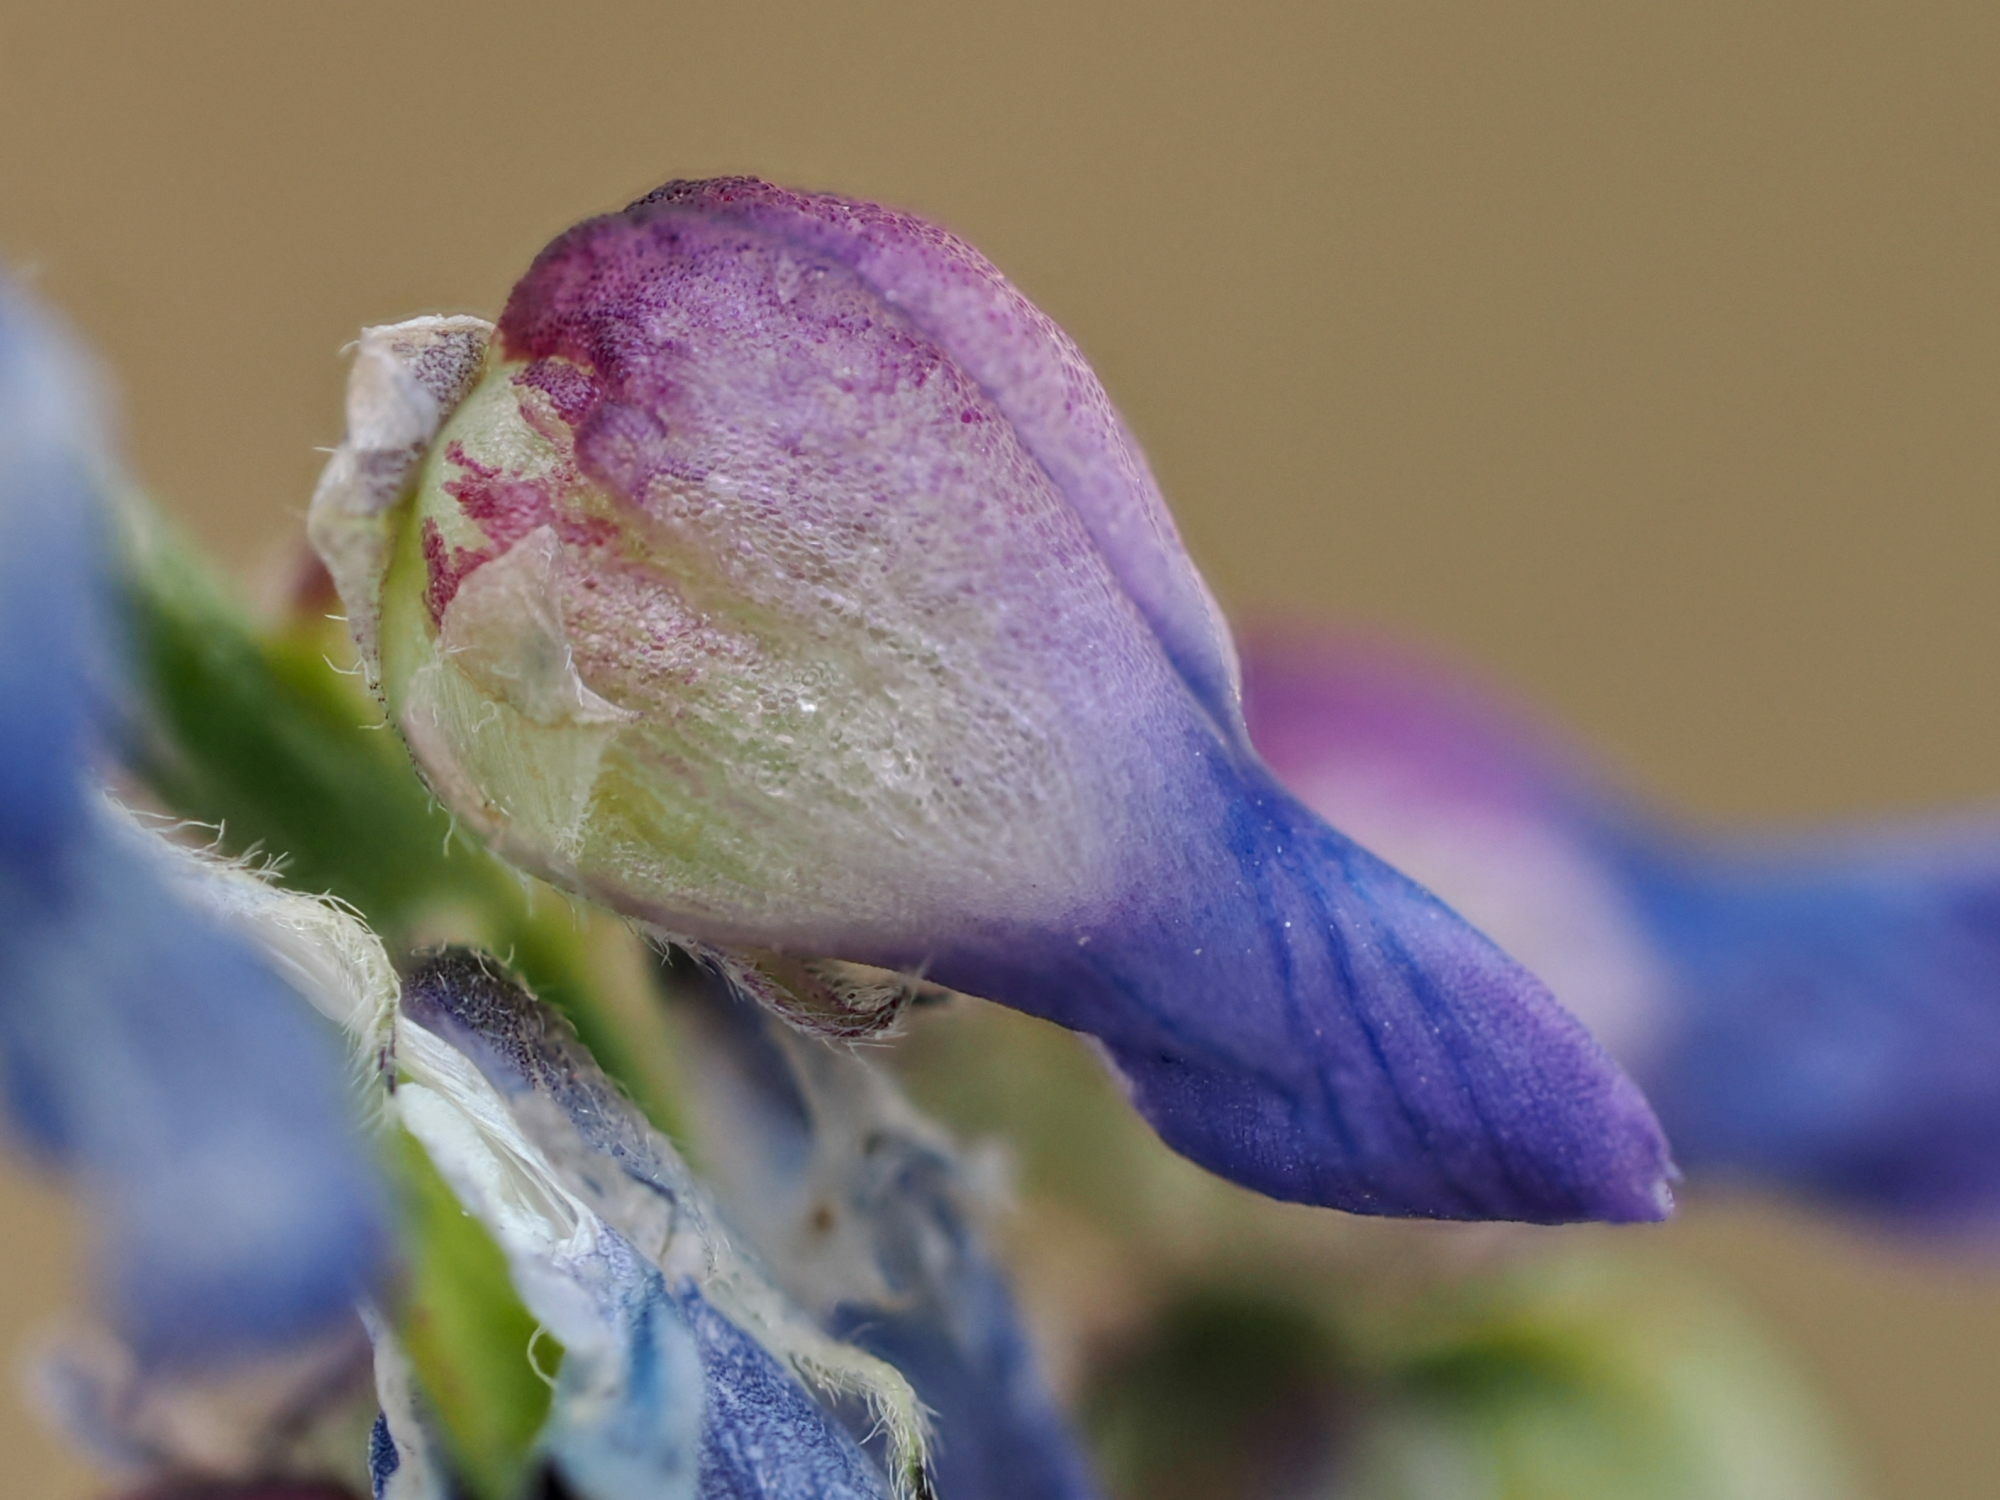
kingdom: Animalia
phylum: Arthropoda
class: Insecta
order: Diptera
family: Cecidomyiidae
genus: Contarinia
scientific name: Contarinia craccae
